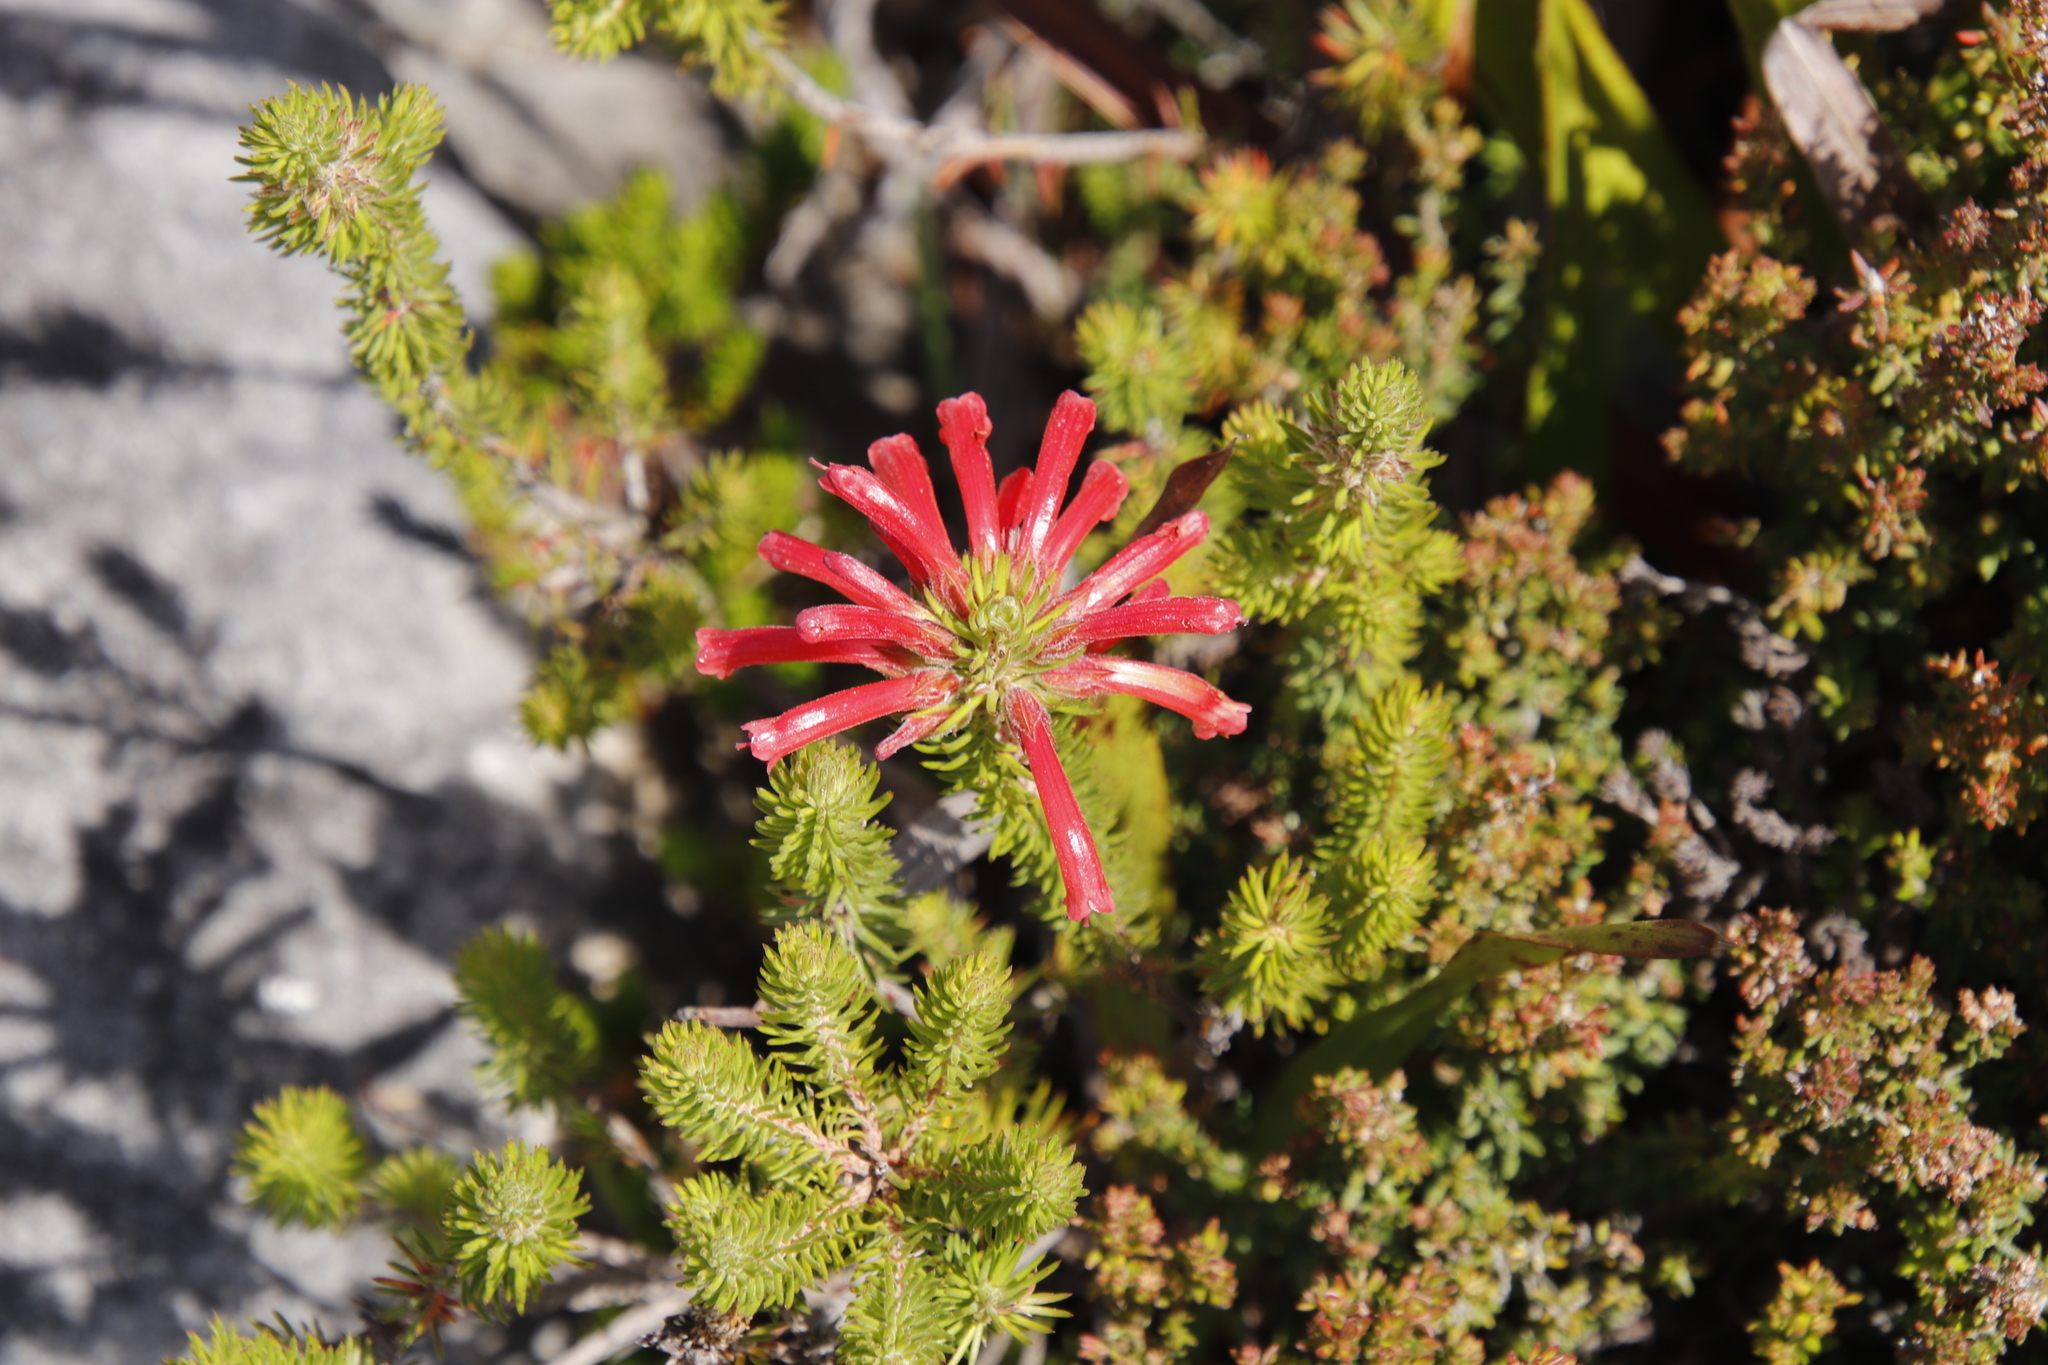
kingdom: Plantae
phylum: Tracheophyta
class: Magnoliopsida
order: Ericales
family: Ericaceae
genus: Erica
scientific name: Erica abietina
